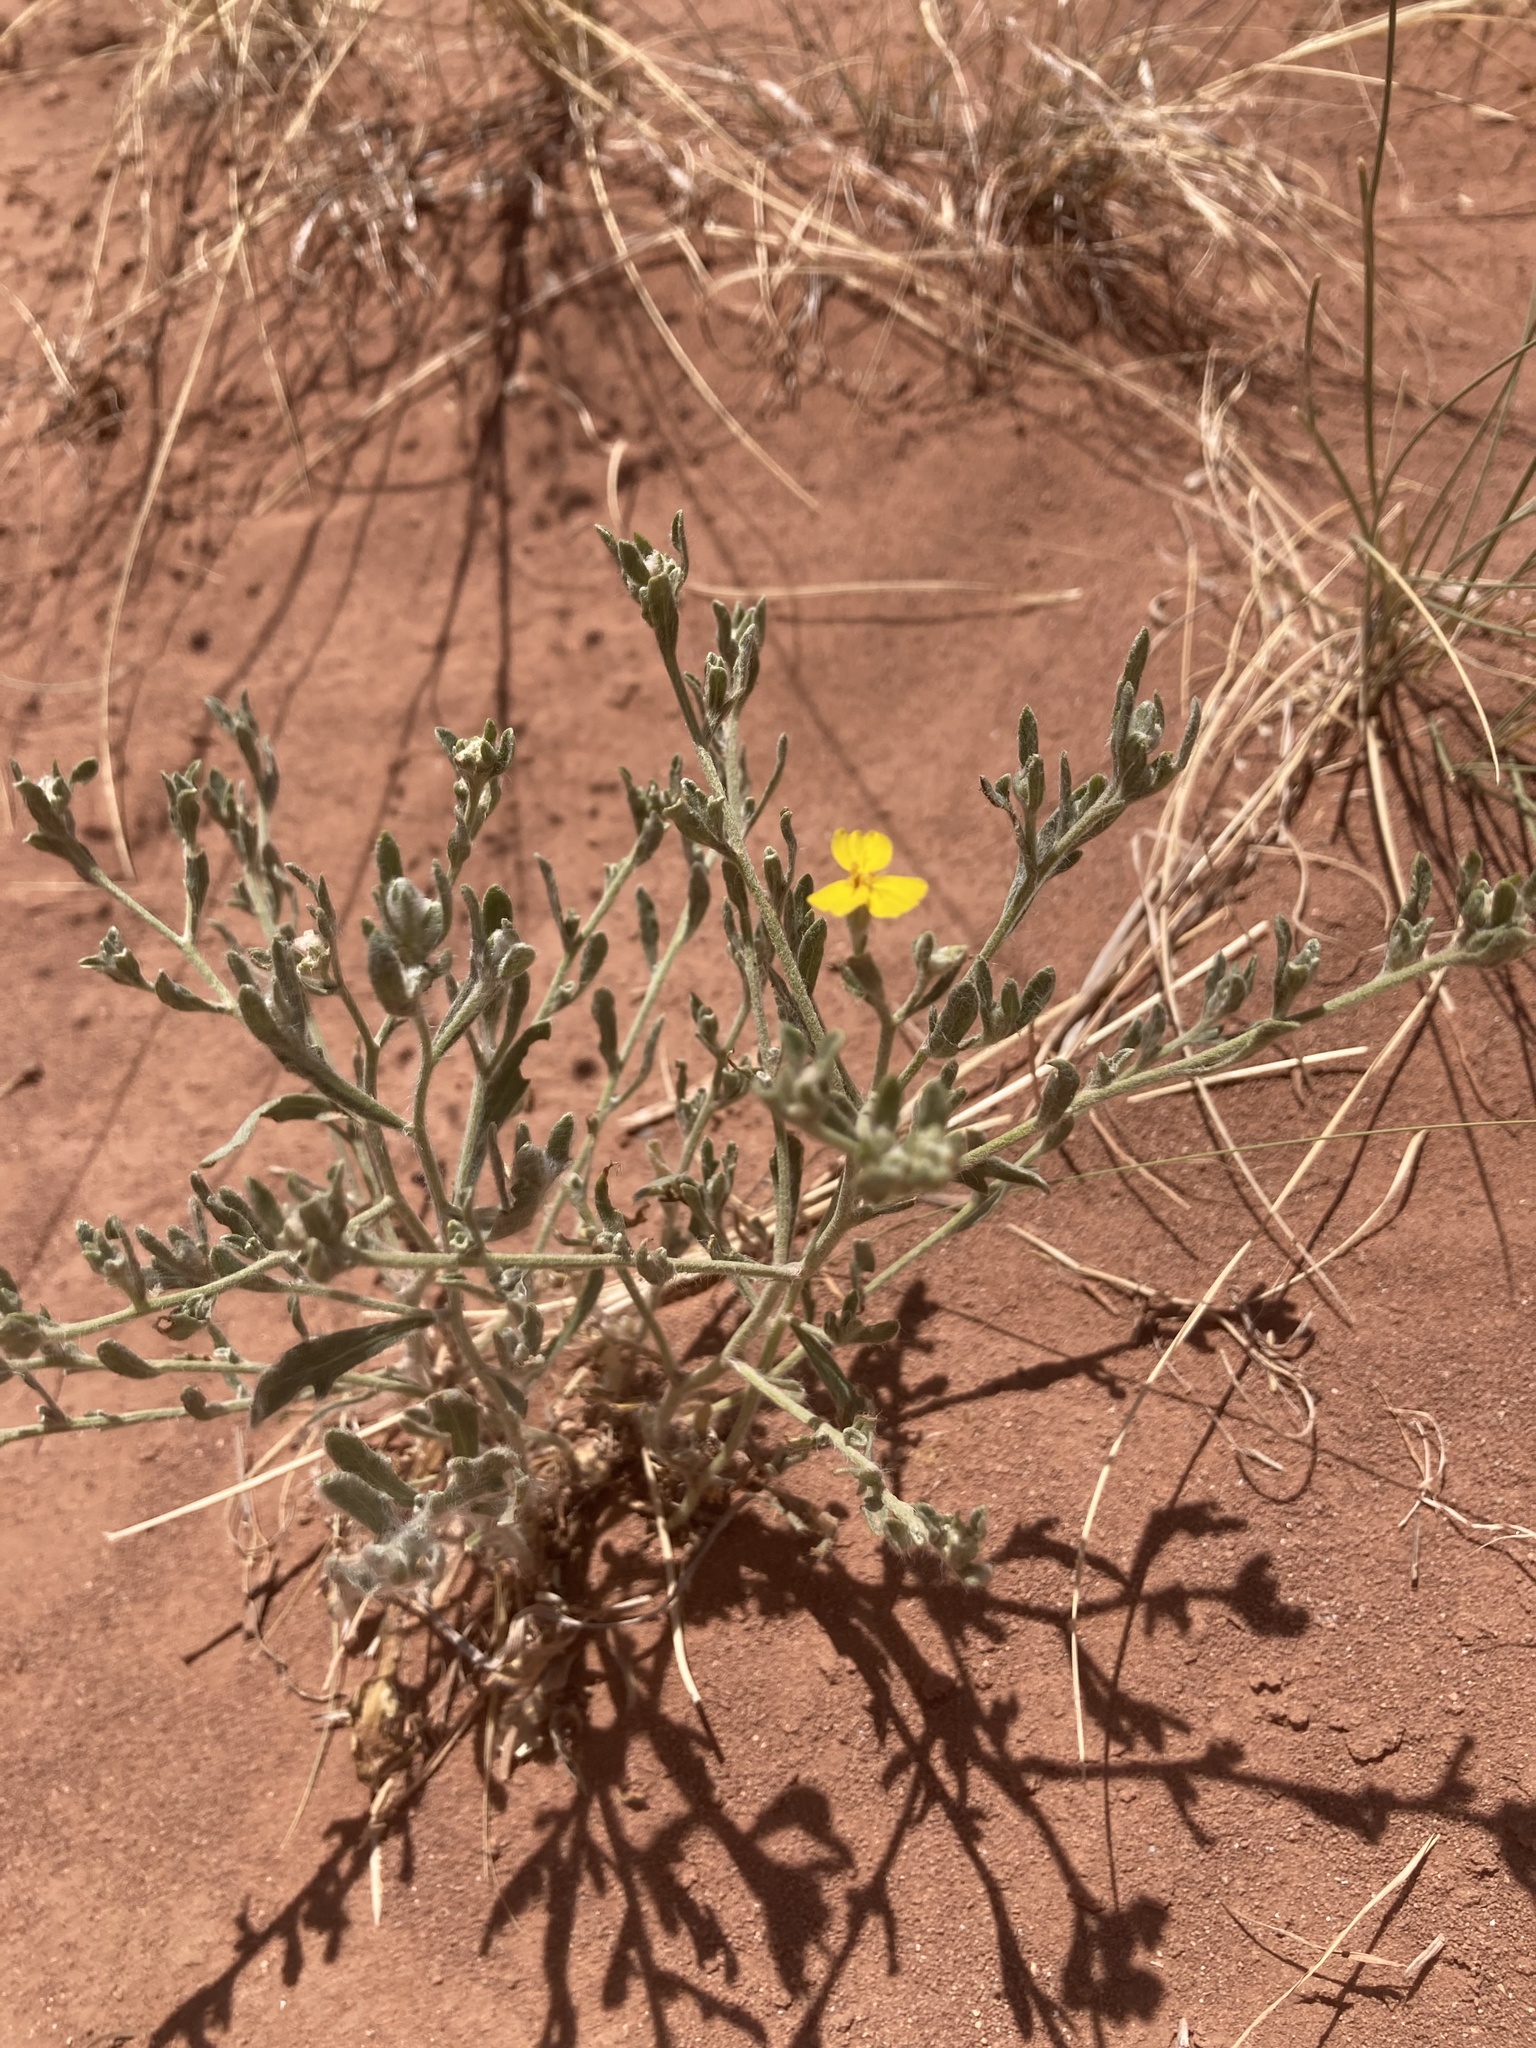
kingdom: Plantae
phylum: Tracheophyta
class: Magnoliopsida
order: Asterales
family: Asteraceae
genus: Psilostrophe
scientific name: Psilostrophe tagetina
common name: Marigold paper-flower
